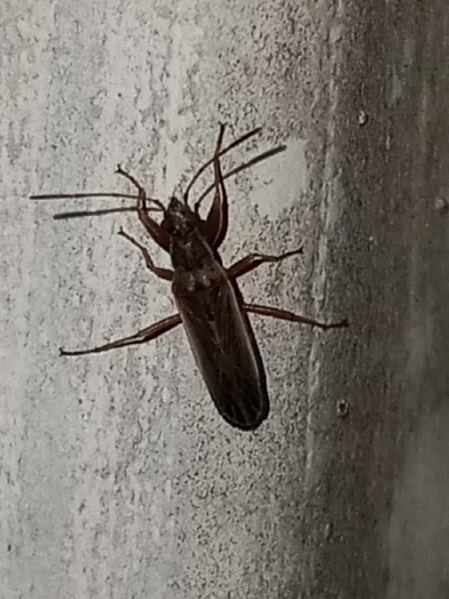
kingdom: Animalia
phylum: Arthropoda
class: Insecta
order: Hemiptera
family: Rhyparochromidae
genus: Paromius
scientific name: Paromius longulus
